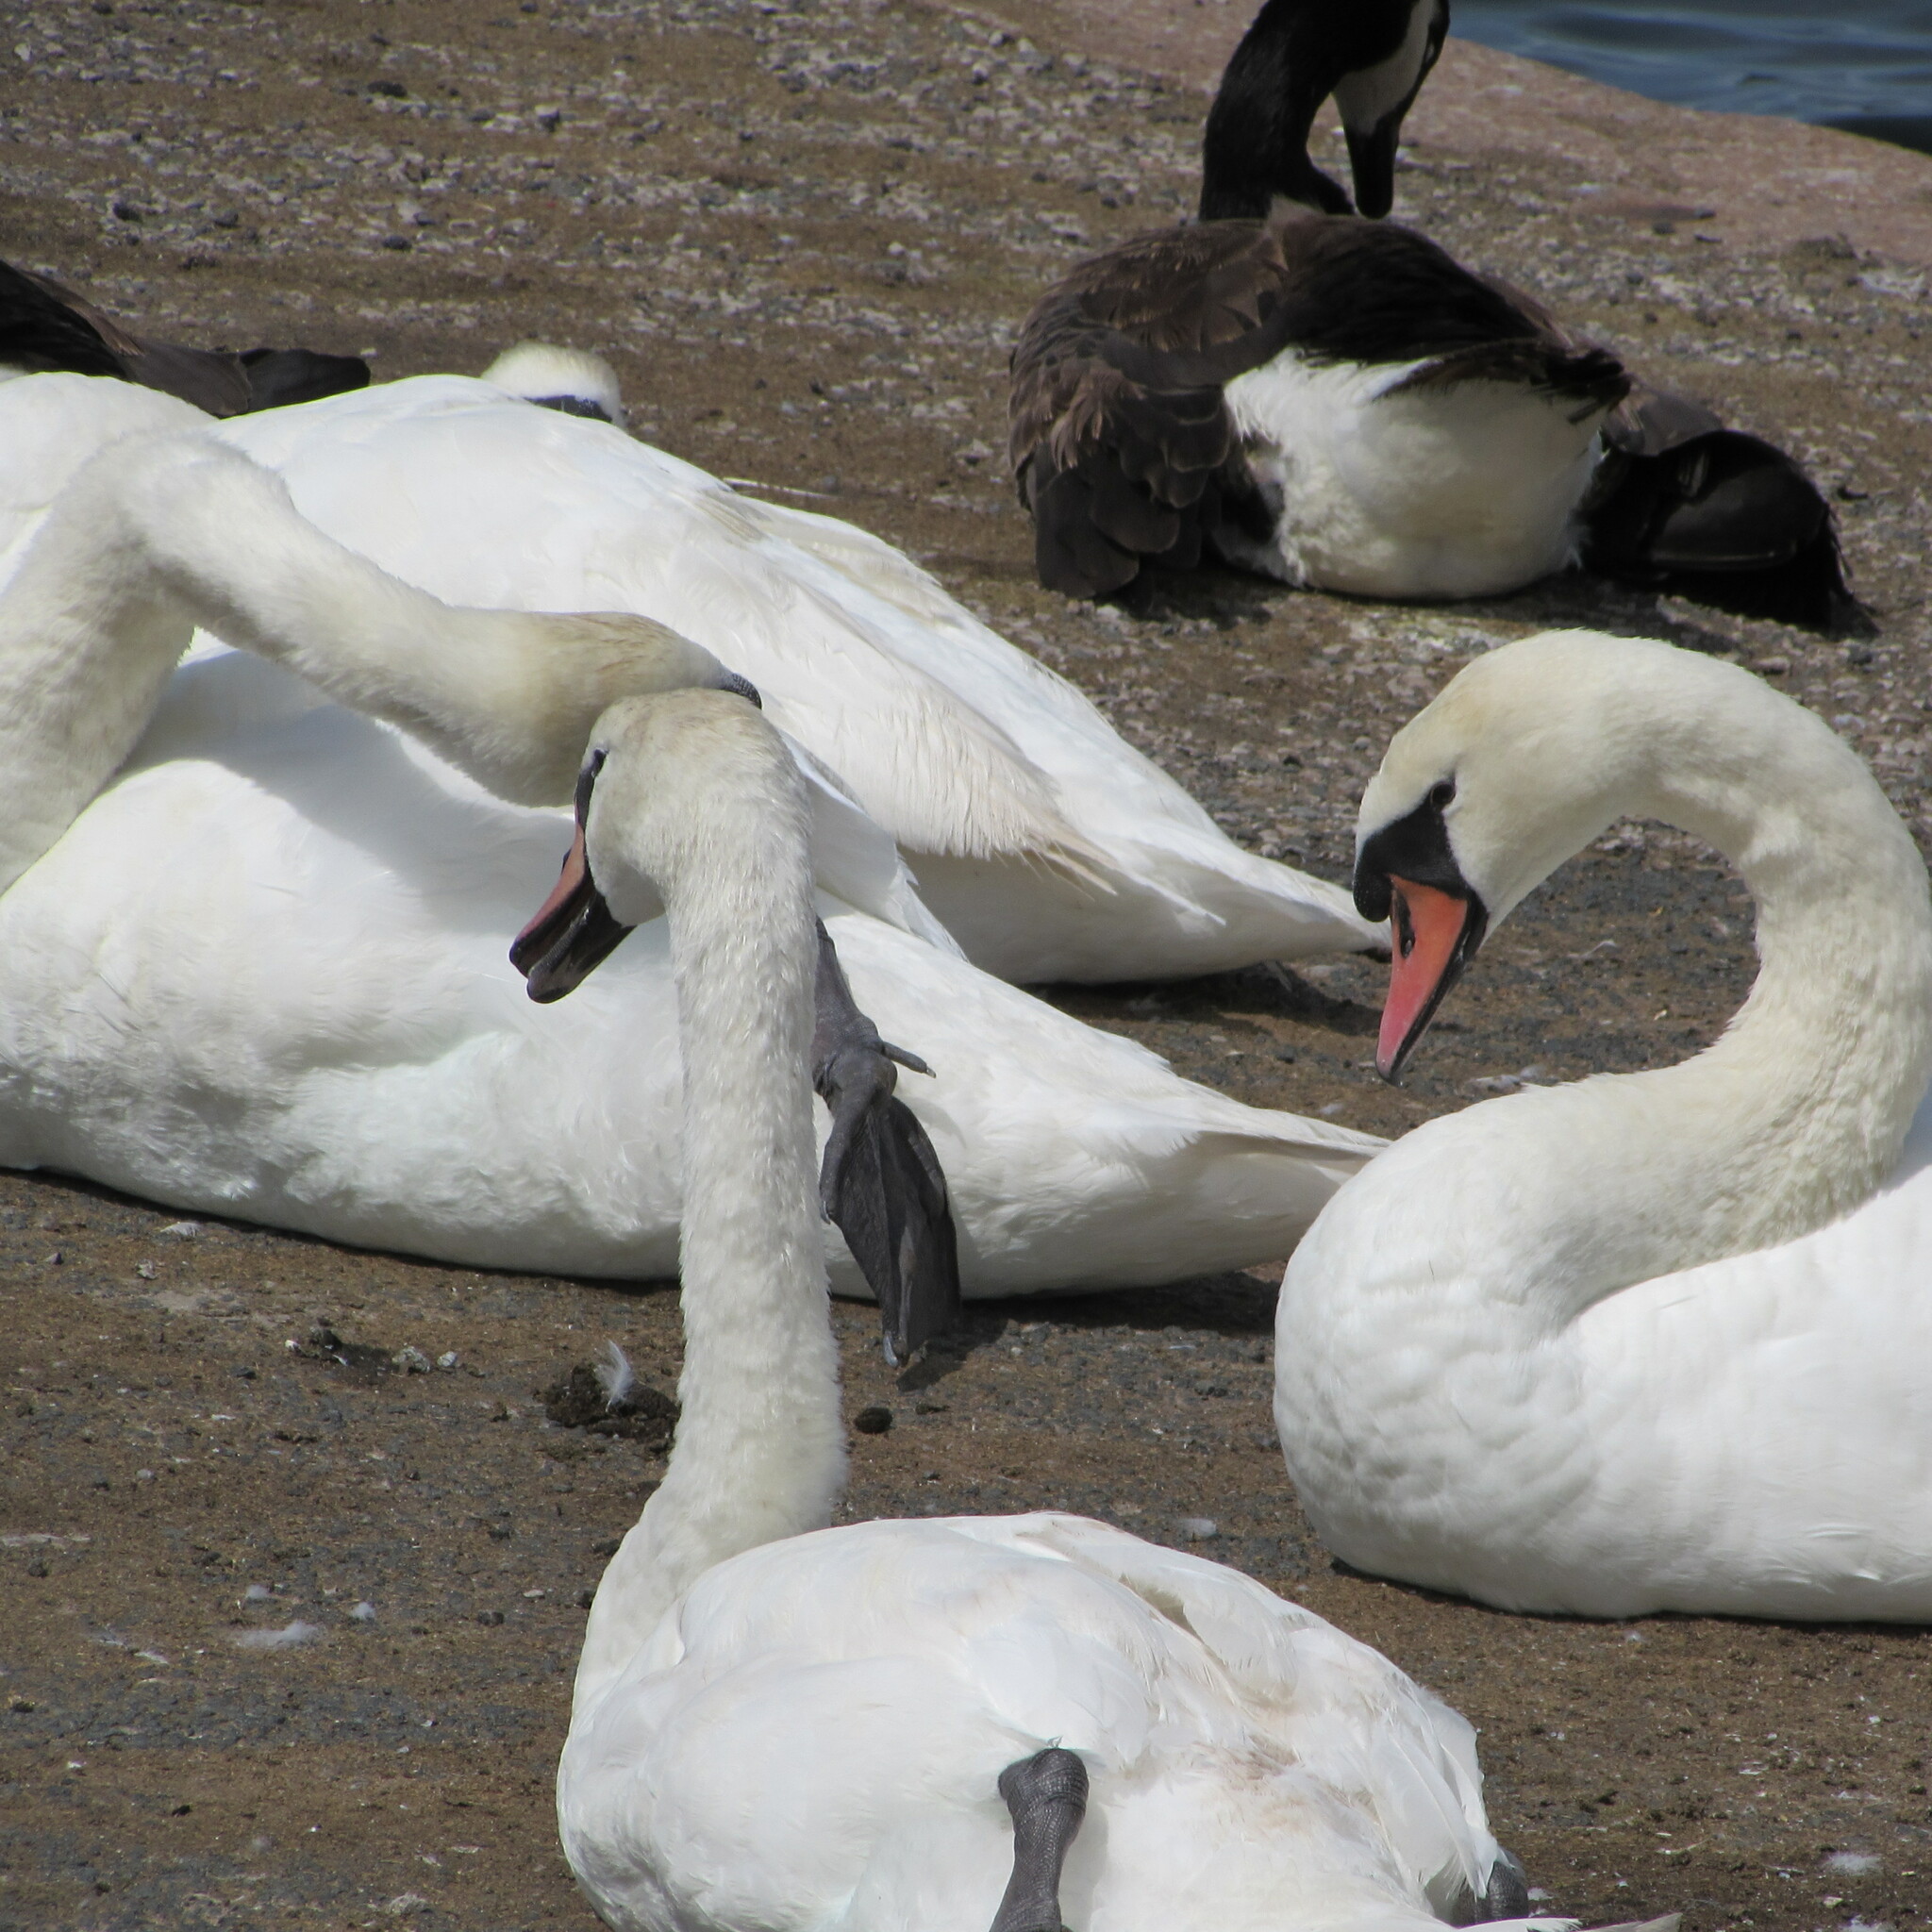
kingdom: Animalia
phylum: Chordata
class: Aves
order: Anseriformes
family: Anatidae
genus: Cygnus
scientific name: Cygnus olor
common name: Mute swan
